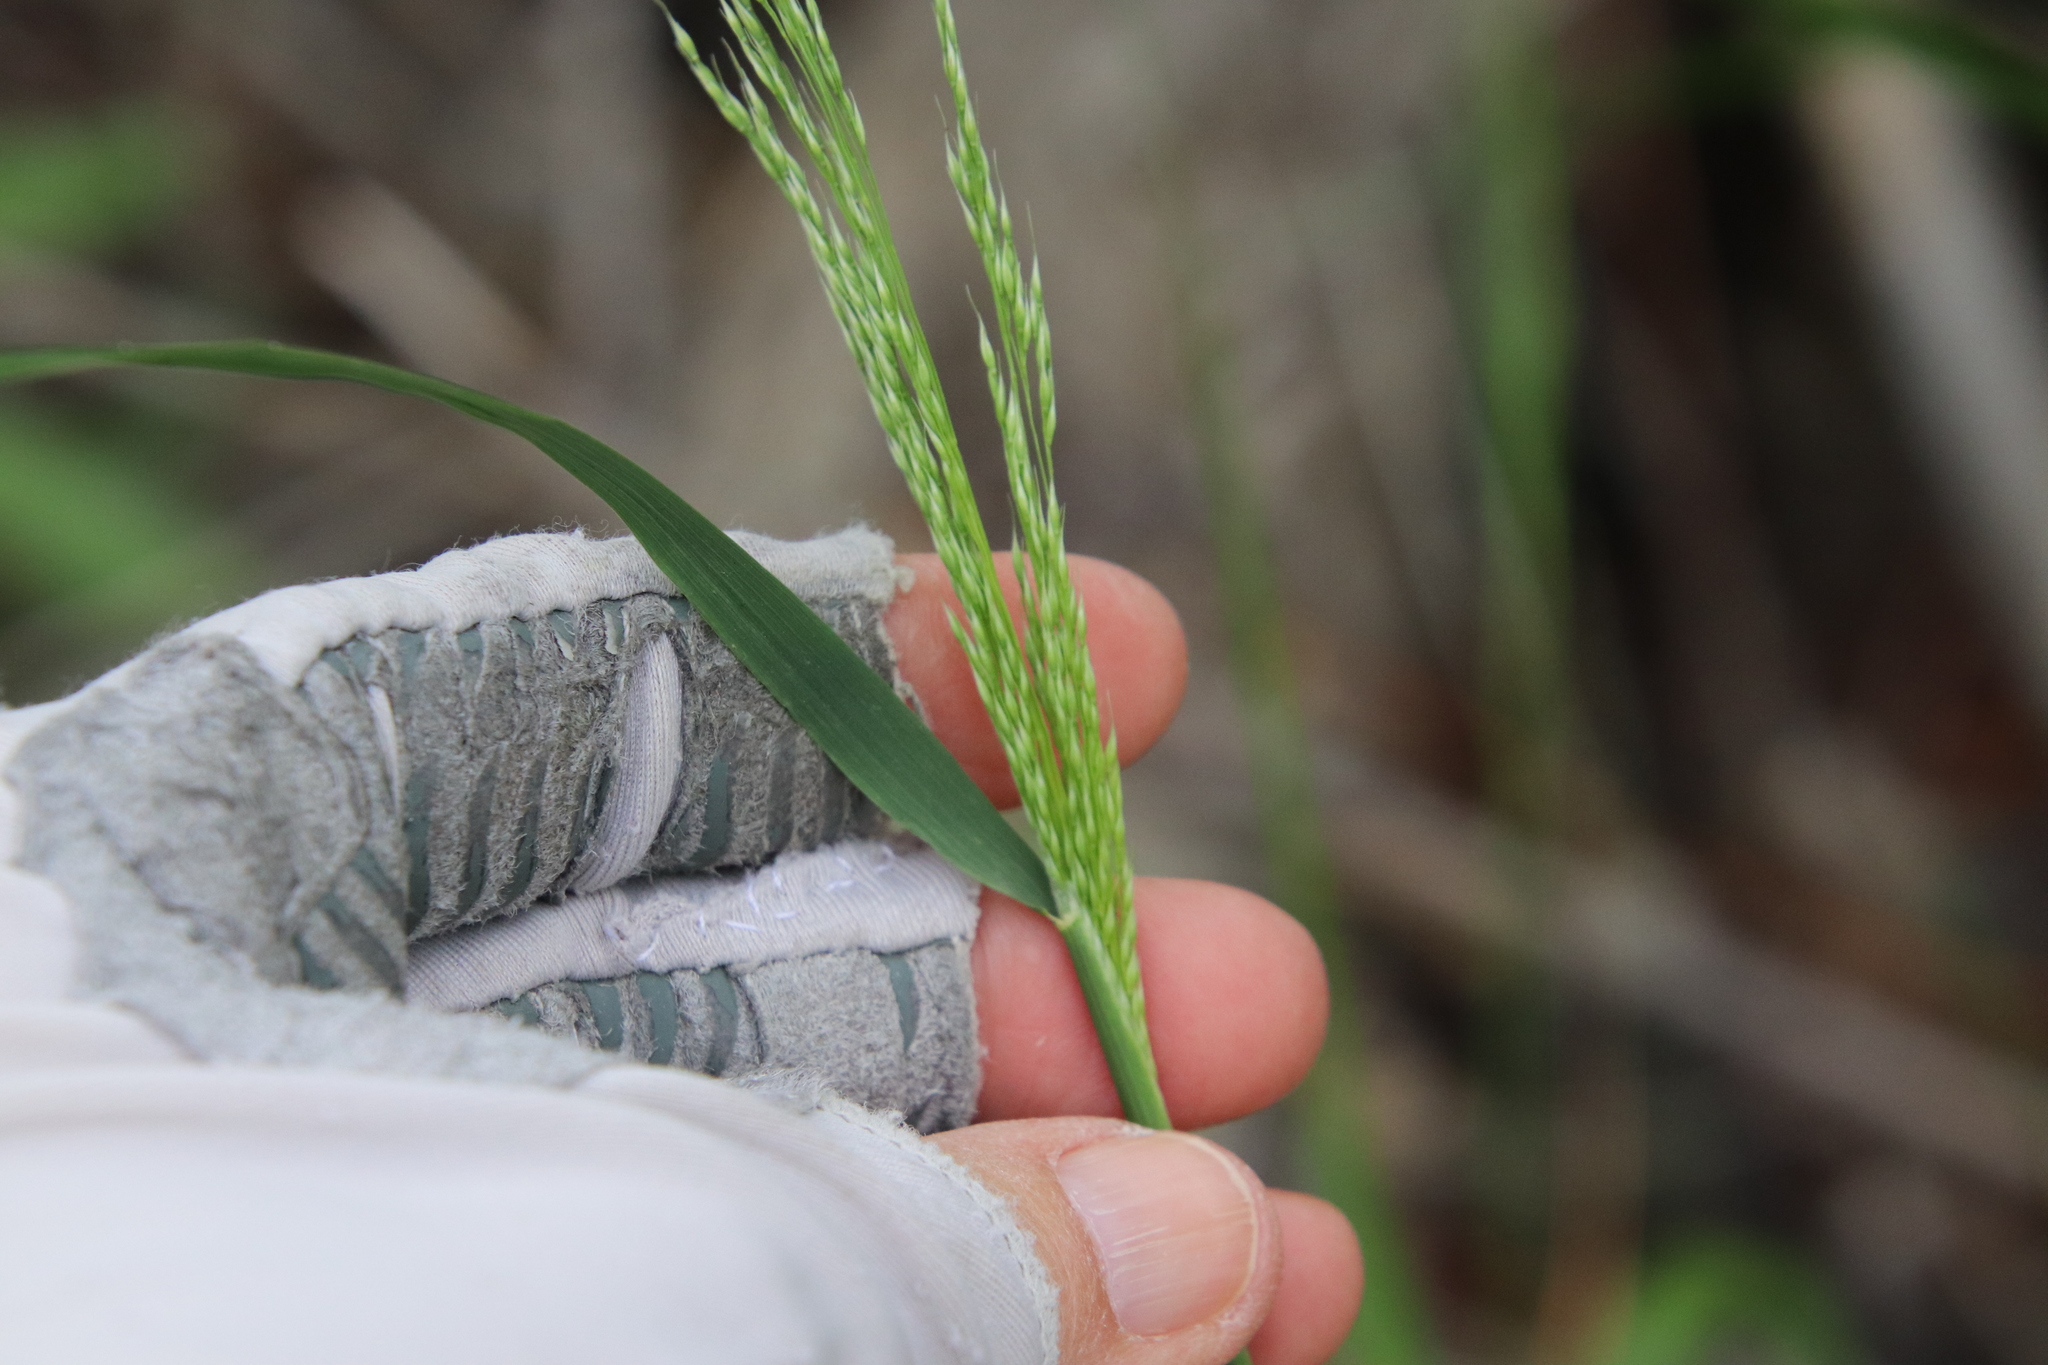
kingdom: Plantae
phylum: Tracheophyta
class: Liliopsida
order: Poales
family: Poaceae
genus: Oloptum
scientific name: Oloptum miliaceum
